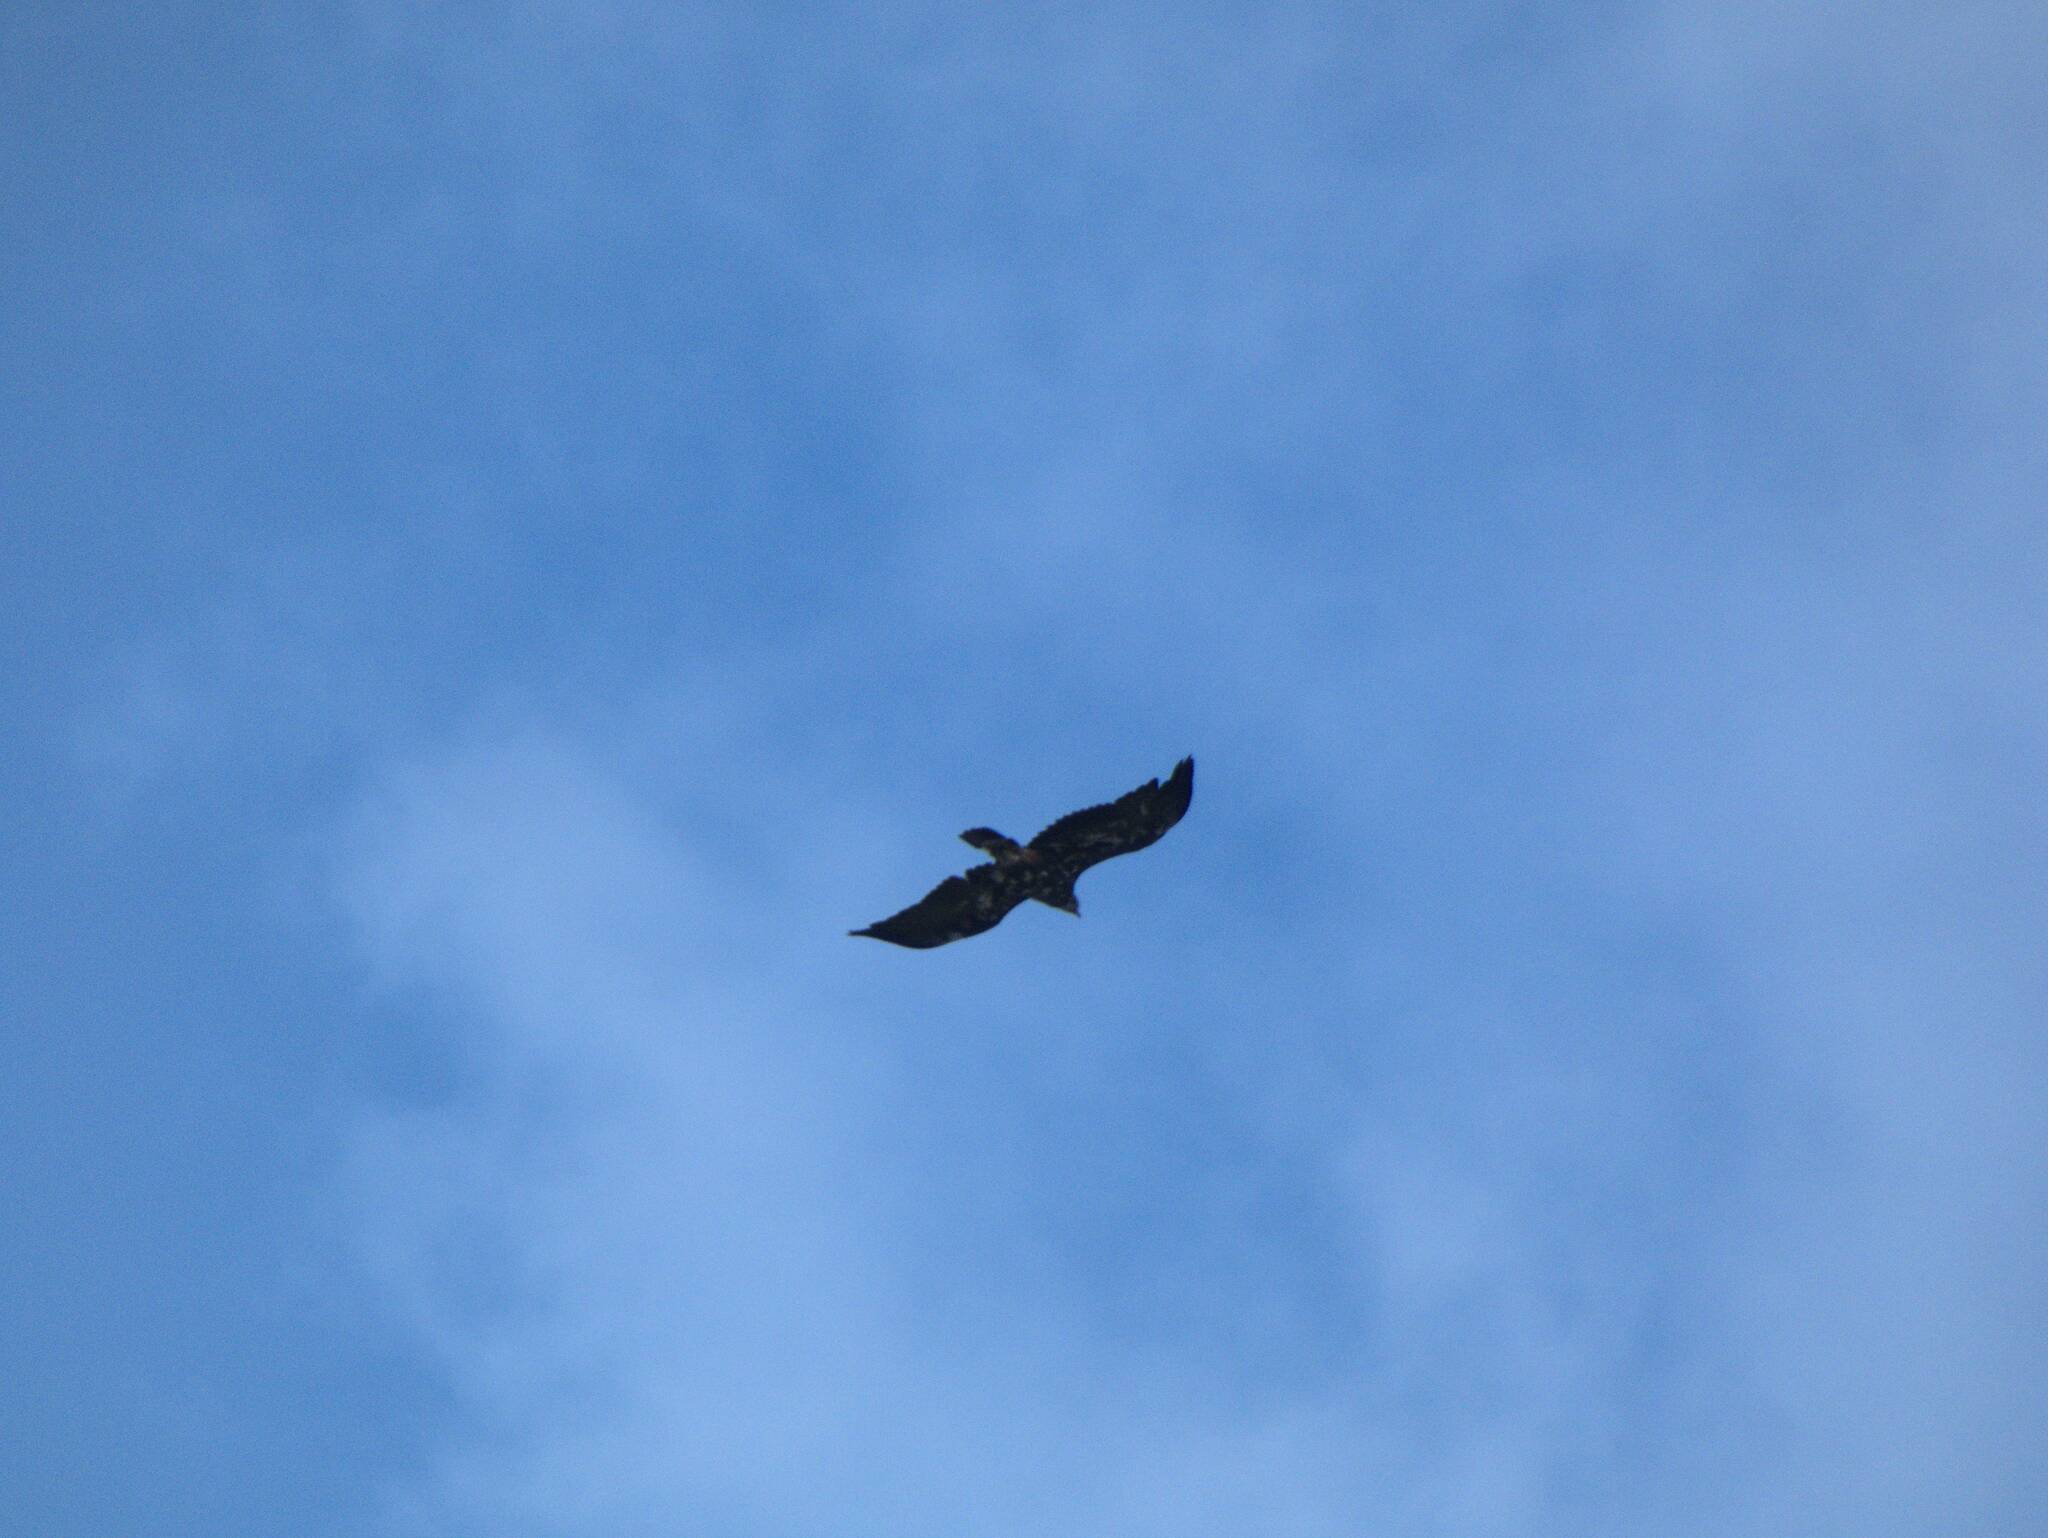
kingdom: Animalia
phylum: Chordata
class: Aves
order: Accipitriformes
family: Accipitridae
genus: Aquila
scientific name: Aquila chrysaetos
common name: Golden eagle
